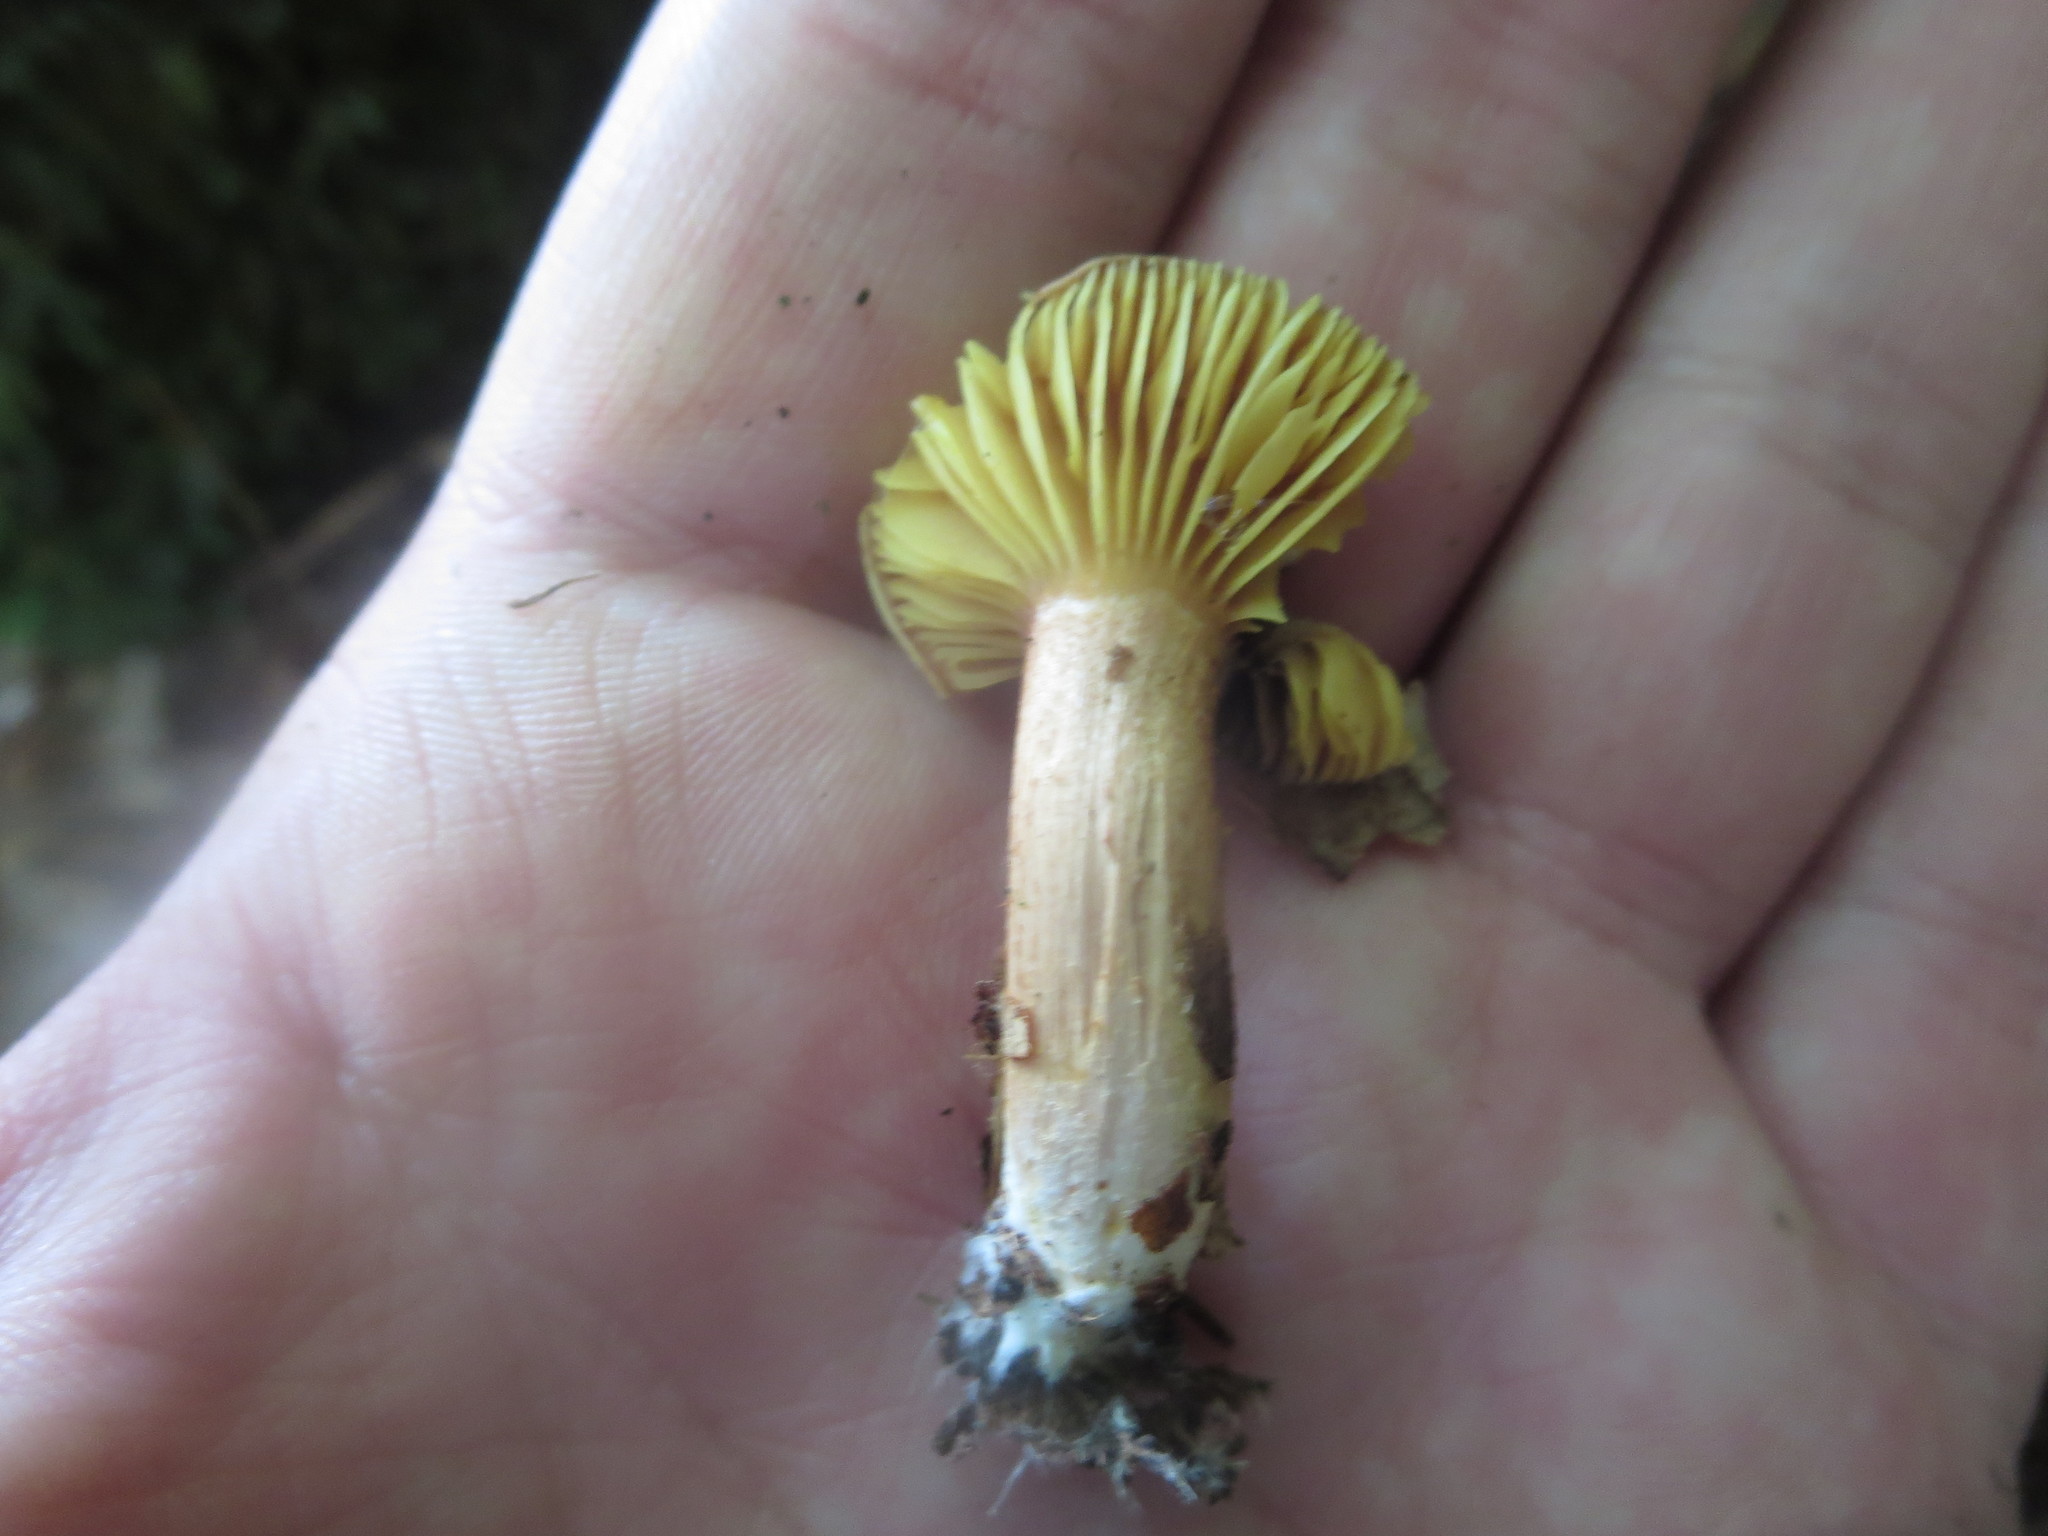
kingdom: Fungi
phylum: Basidiomycota
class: Agaricomycetes
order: Boletales
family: Boletaceae
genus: Phylloporus
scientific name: Phylloporus leucomycelinus
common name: Gilled bolete
